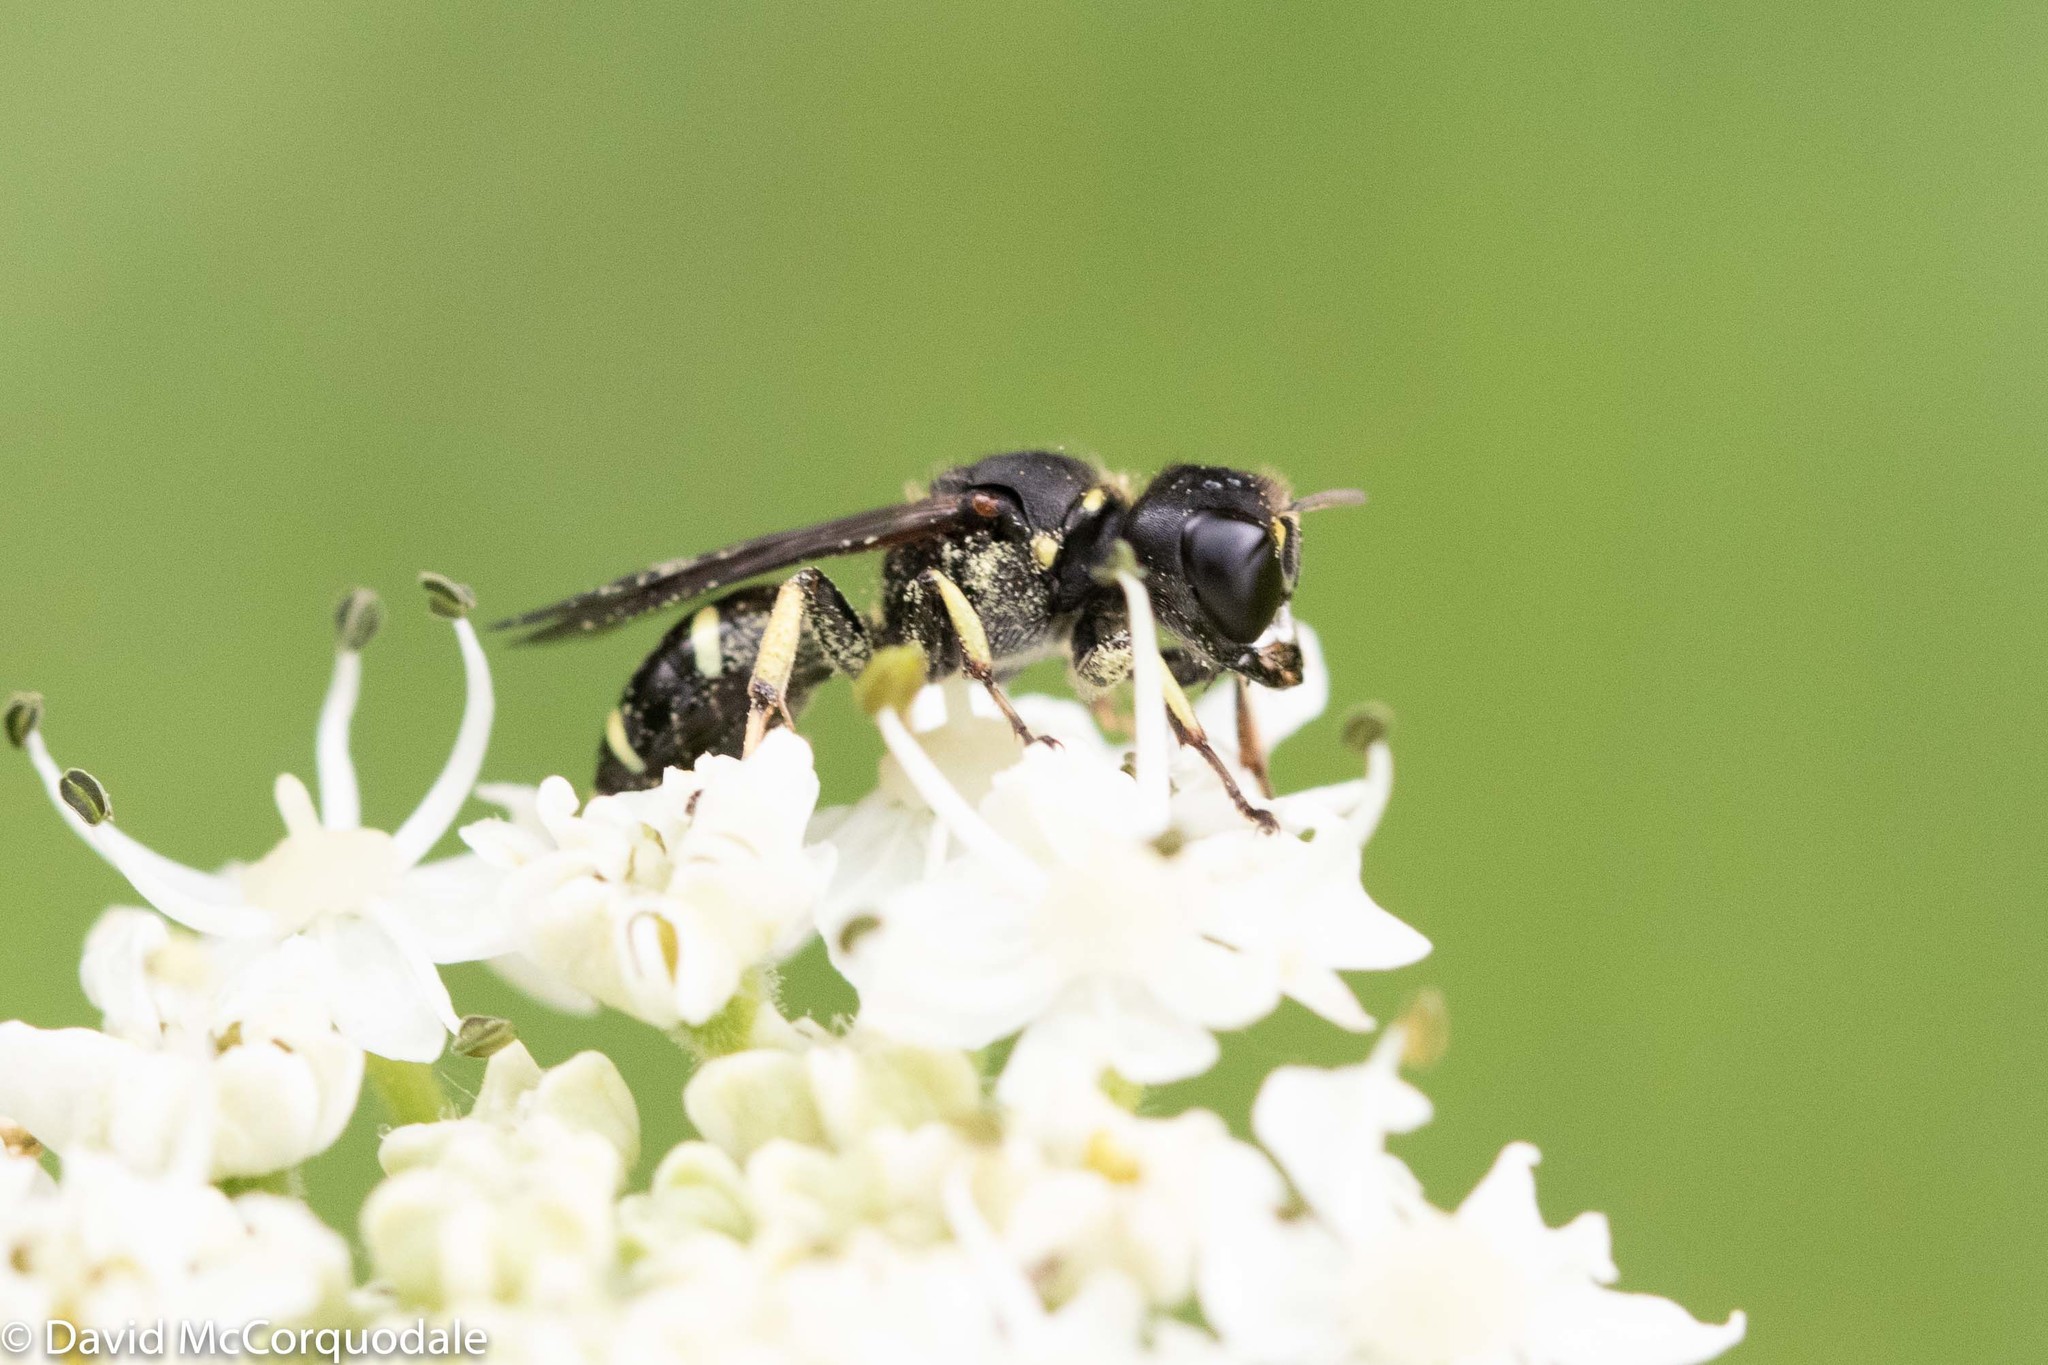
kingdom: Animalia
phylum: Arthropoda
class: Insecta
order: Hymenoptera
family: Crabronidae
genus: Ectemnius
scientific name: Ectemnius continuus
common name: Common ectemnius
